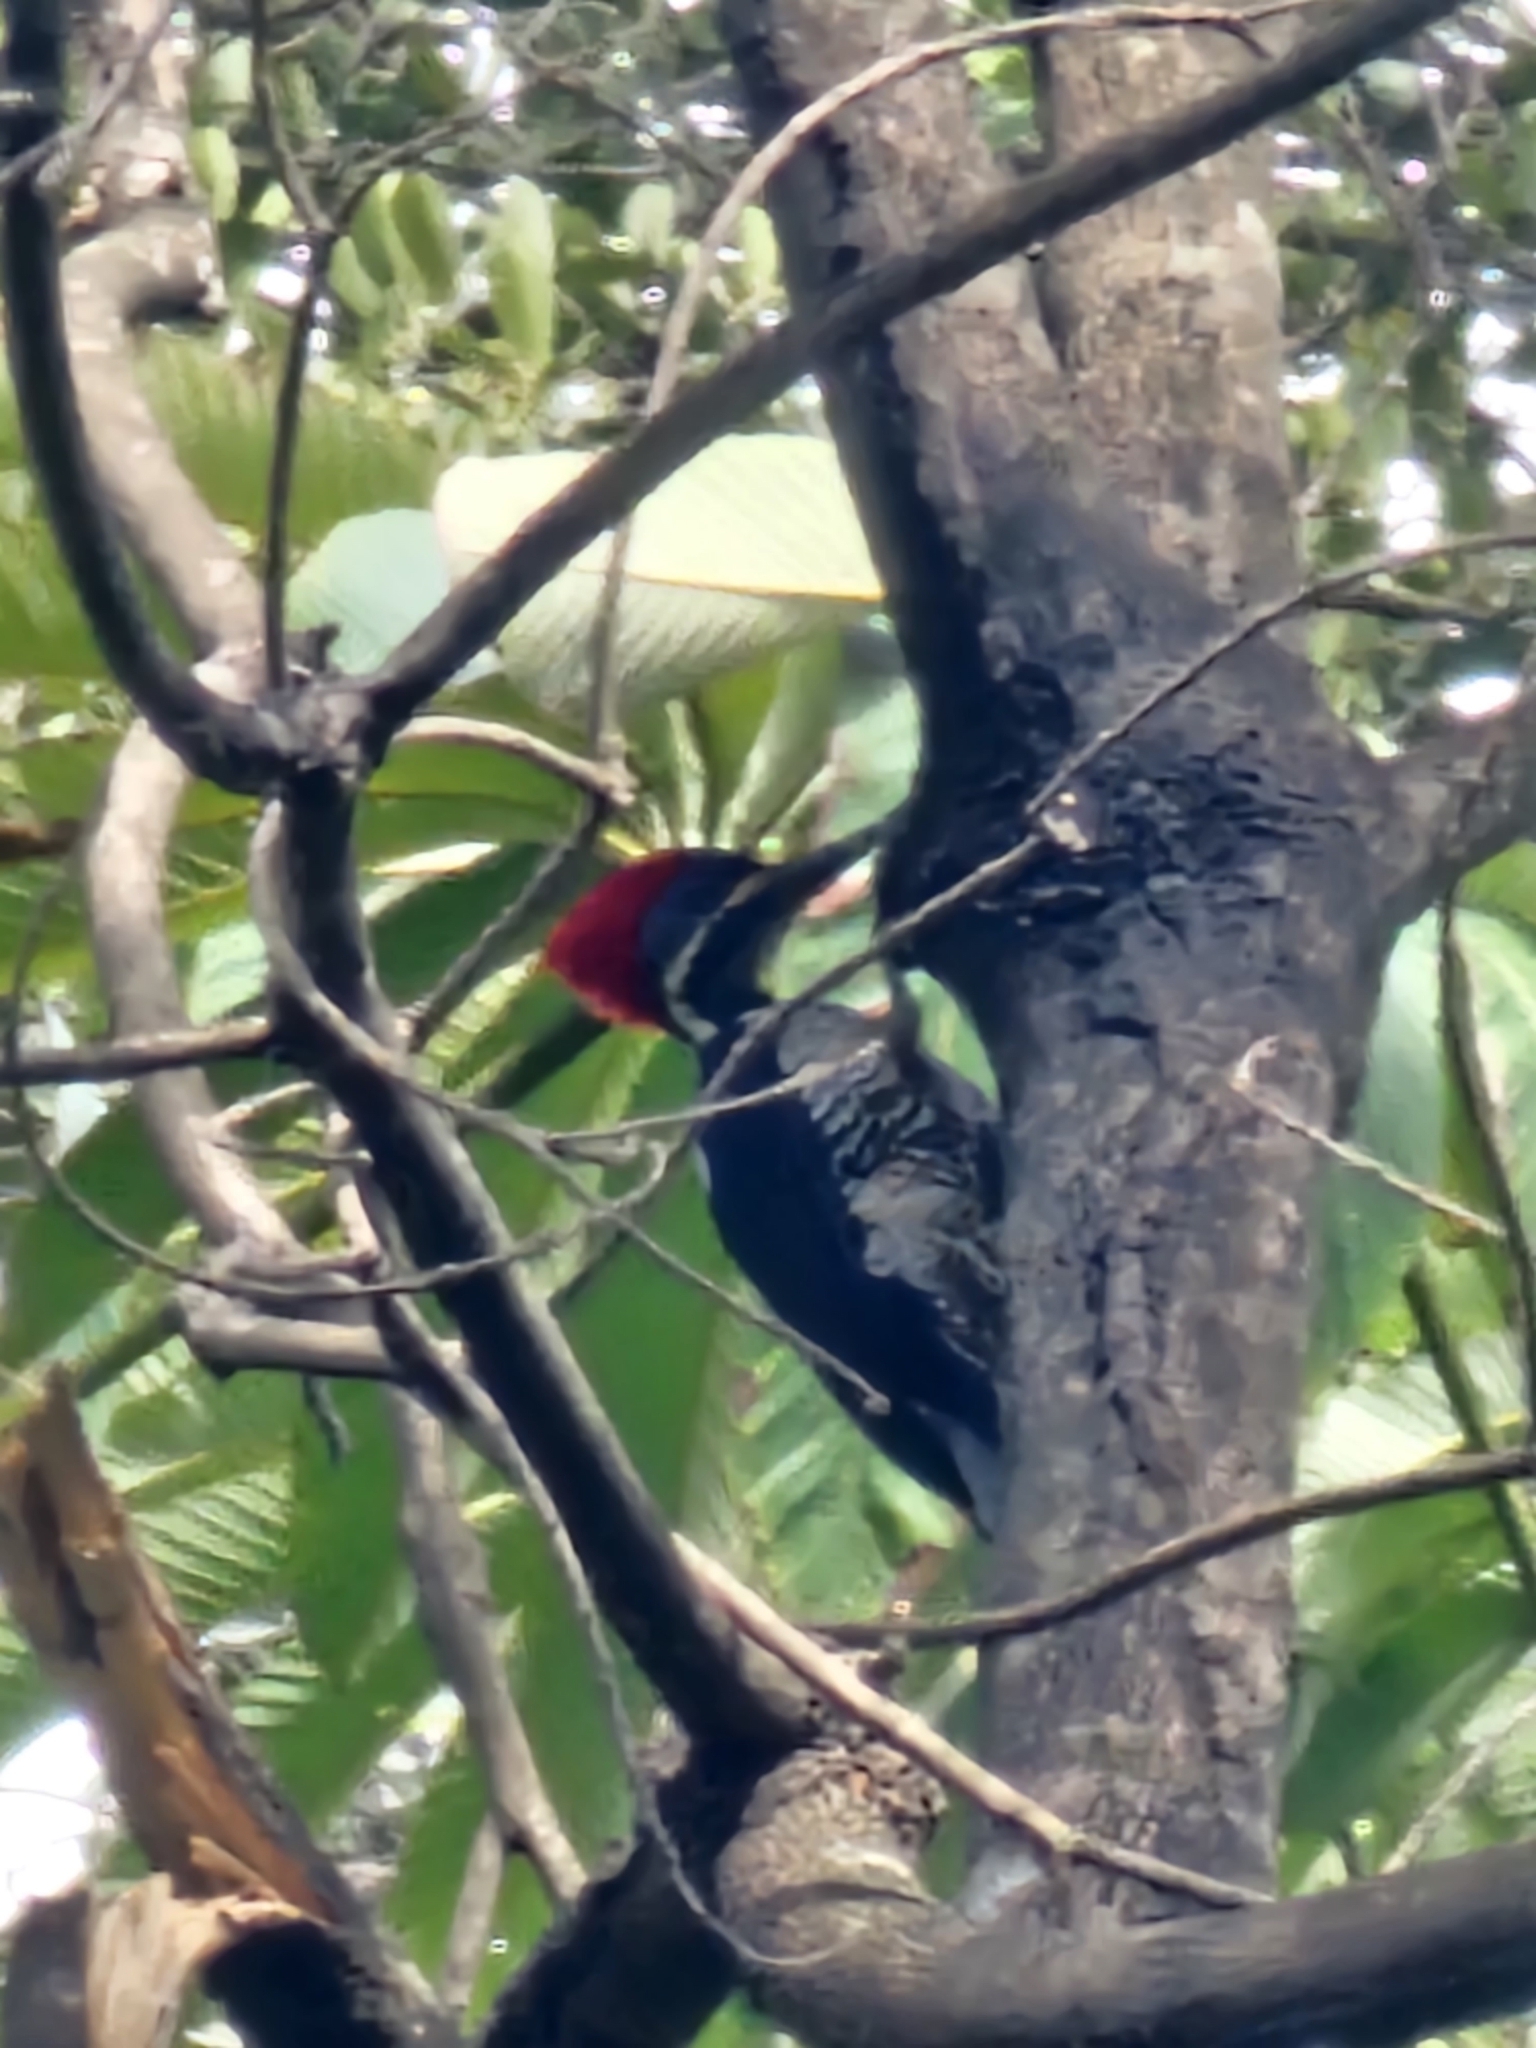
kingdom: Animalia
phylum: Chordata
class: Aves
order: Piciformes
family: Picidae
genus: Dryocopus
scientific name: Dryocopus lineatus
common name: Lineated woodpecker
